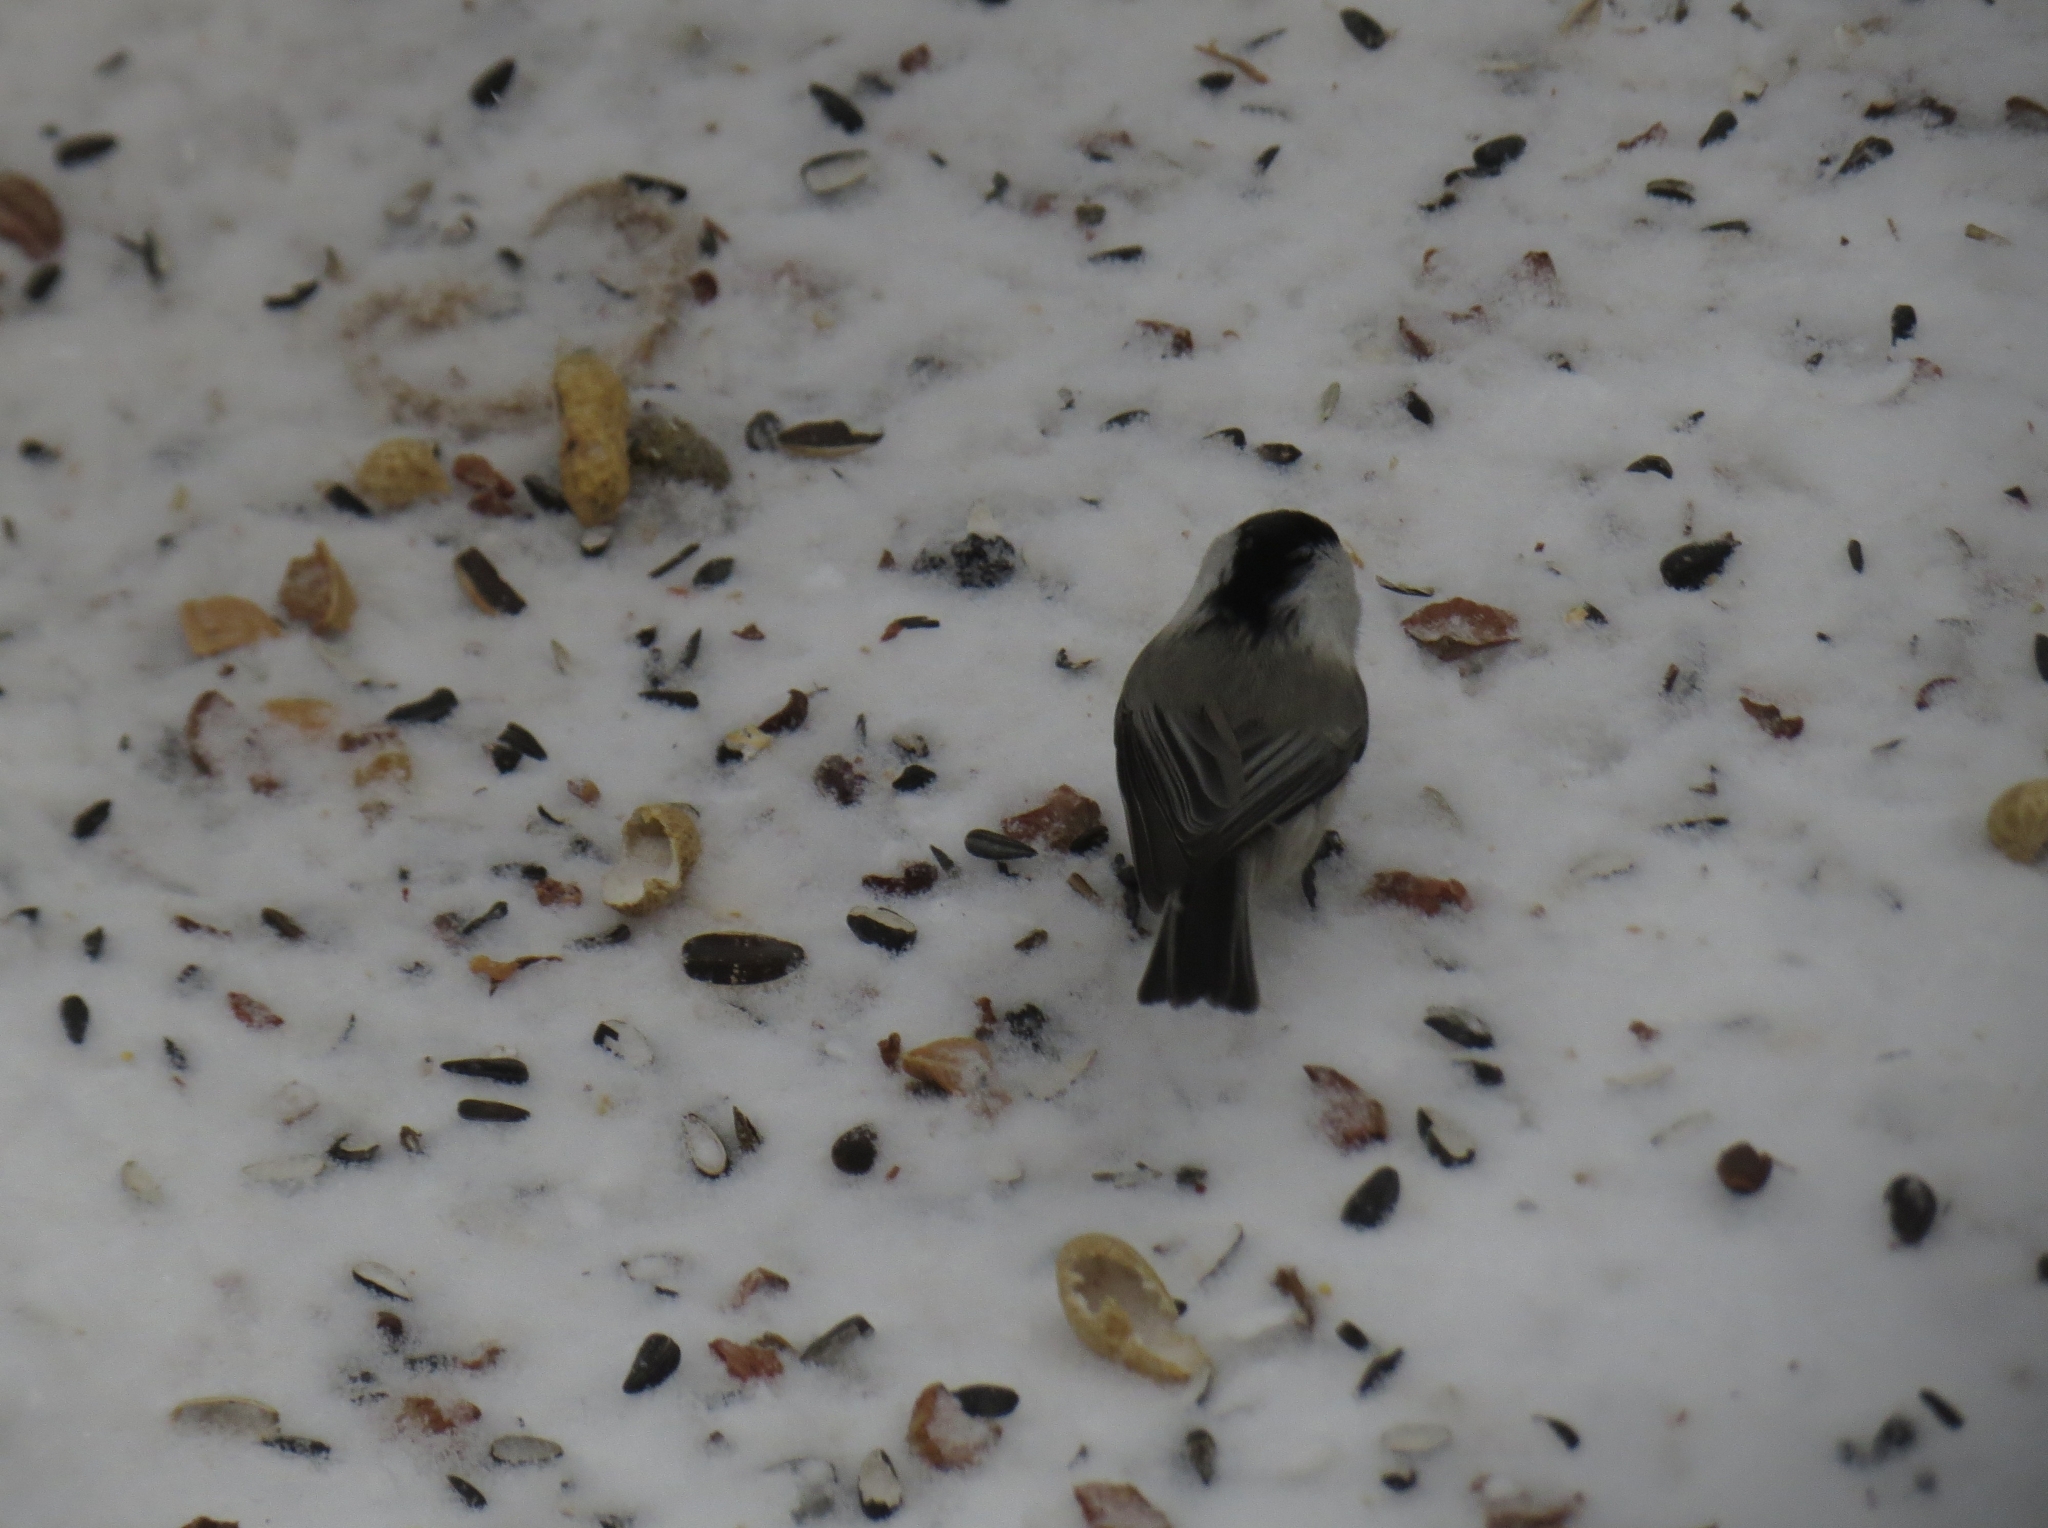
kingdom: Animalia
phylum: Chordata
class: Aves
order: Passeriformes
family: Paridae
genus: Poecile
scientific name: Poecile montanus
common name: Willow tit
